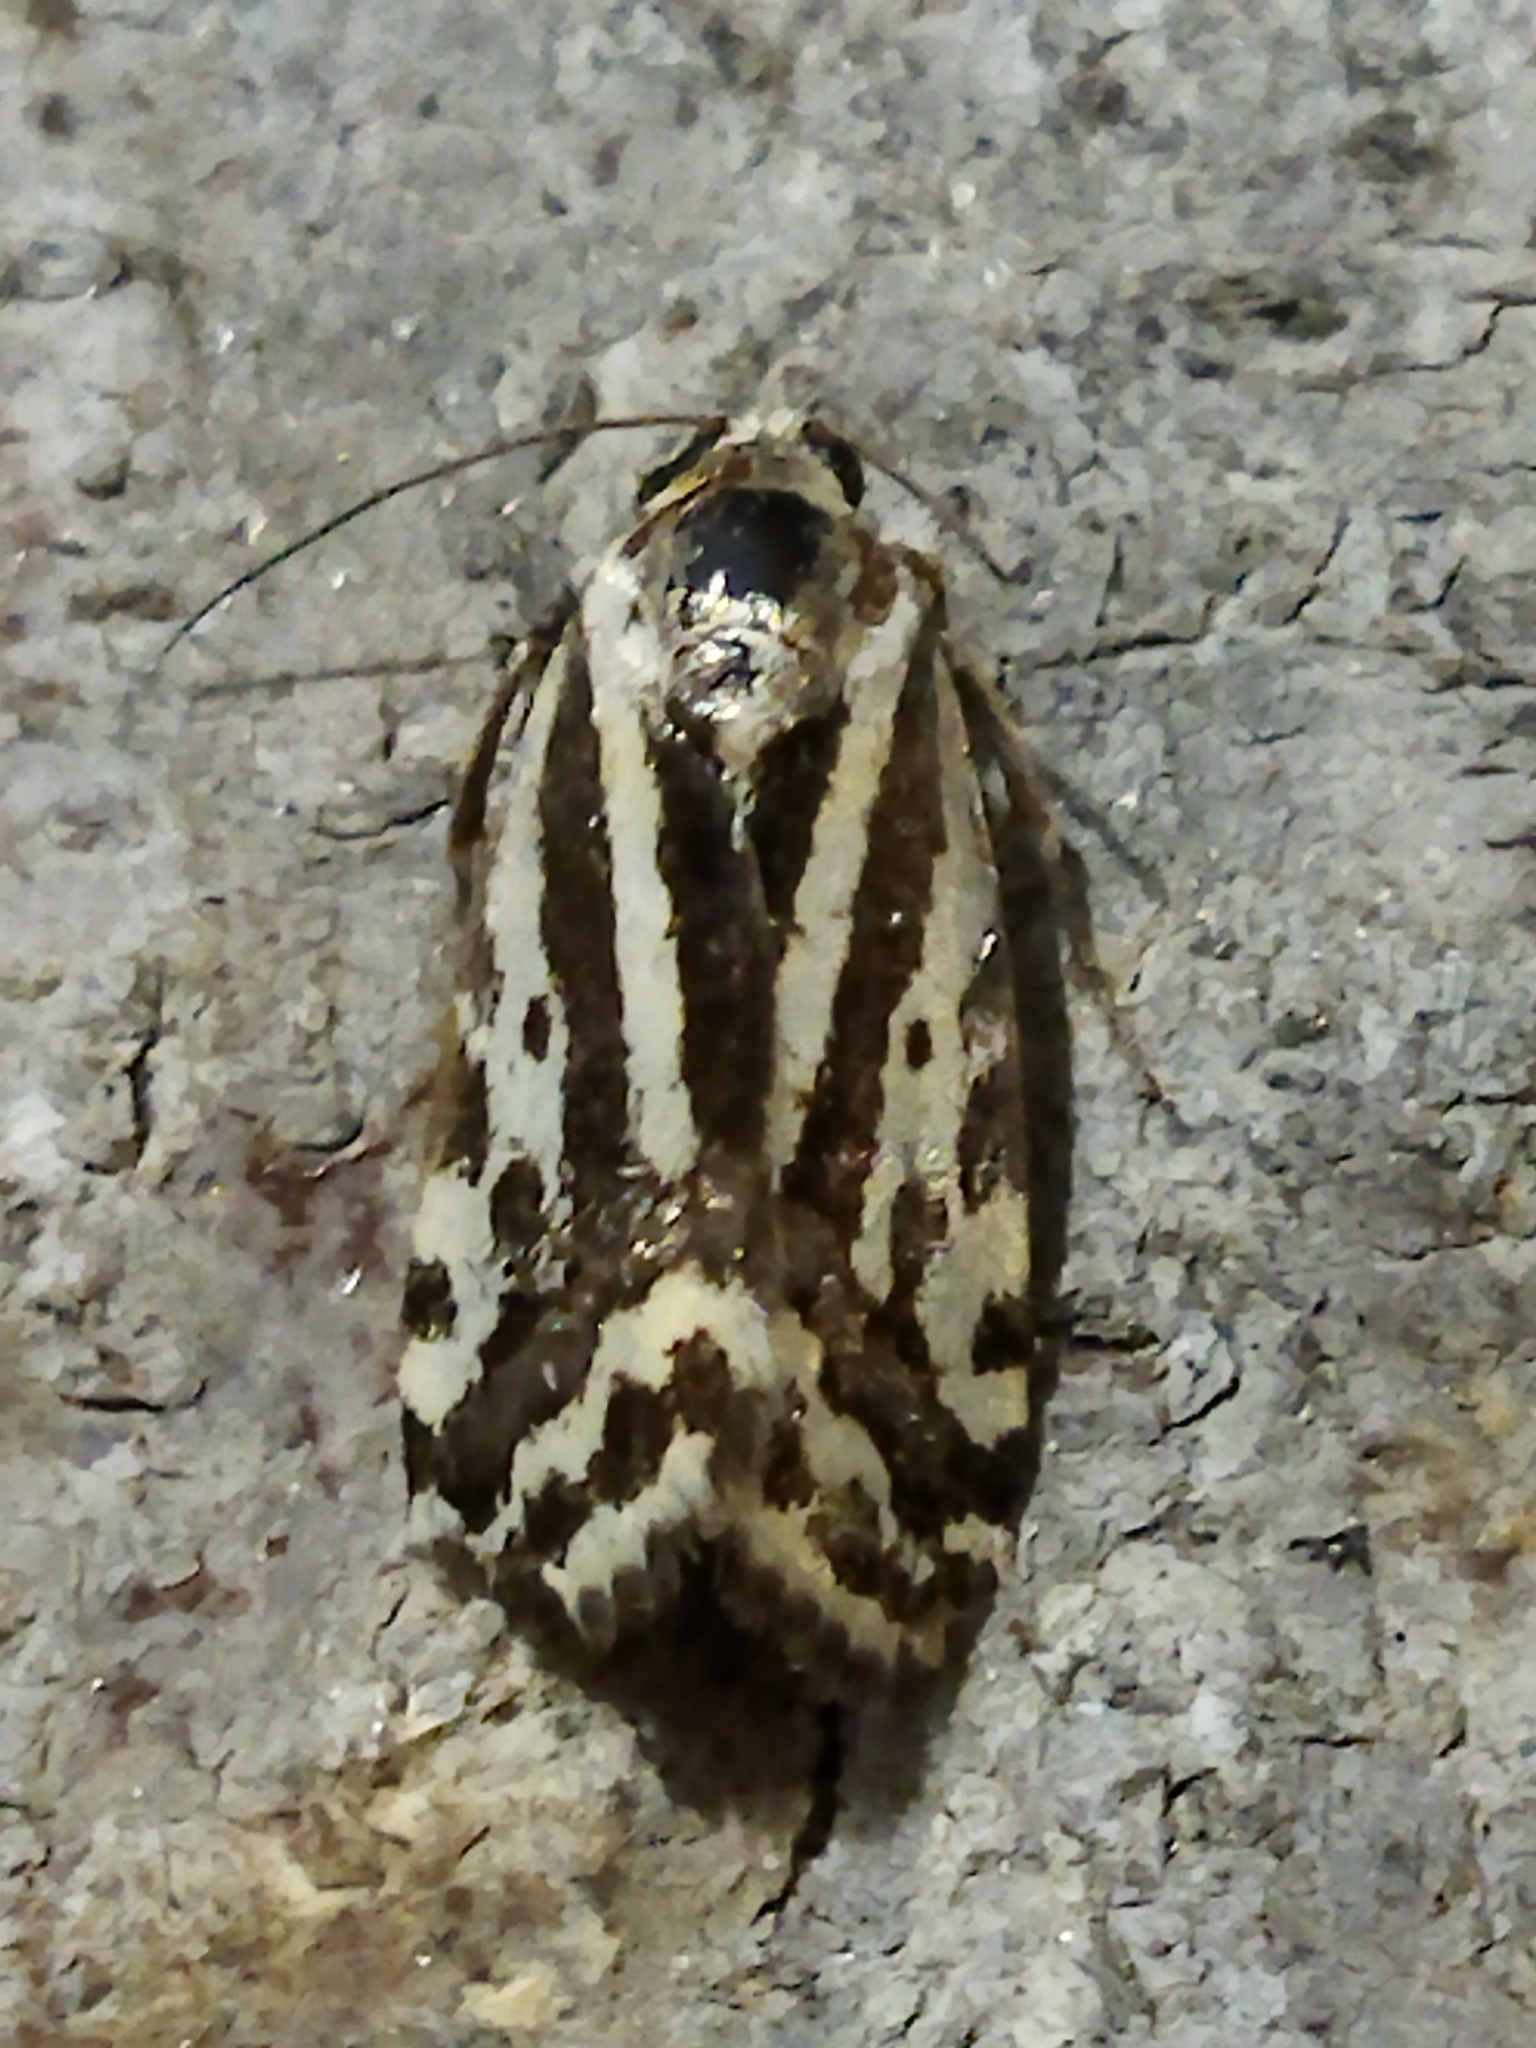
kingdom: Animalia
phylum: Arthropoda
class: Insecta
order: Lepidoptera
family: Noctuidae
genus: Acontia
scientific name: Acontia trabealis
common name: Spotted sulphur
